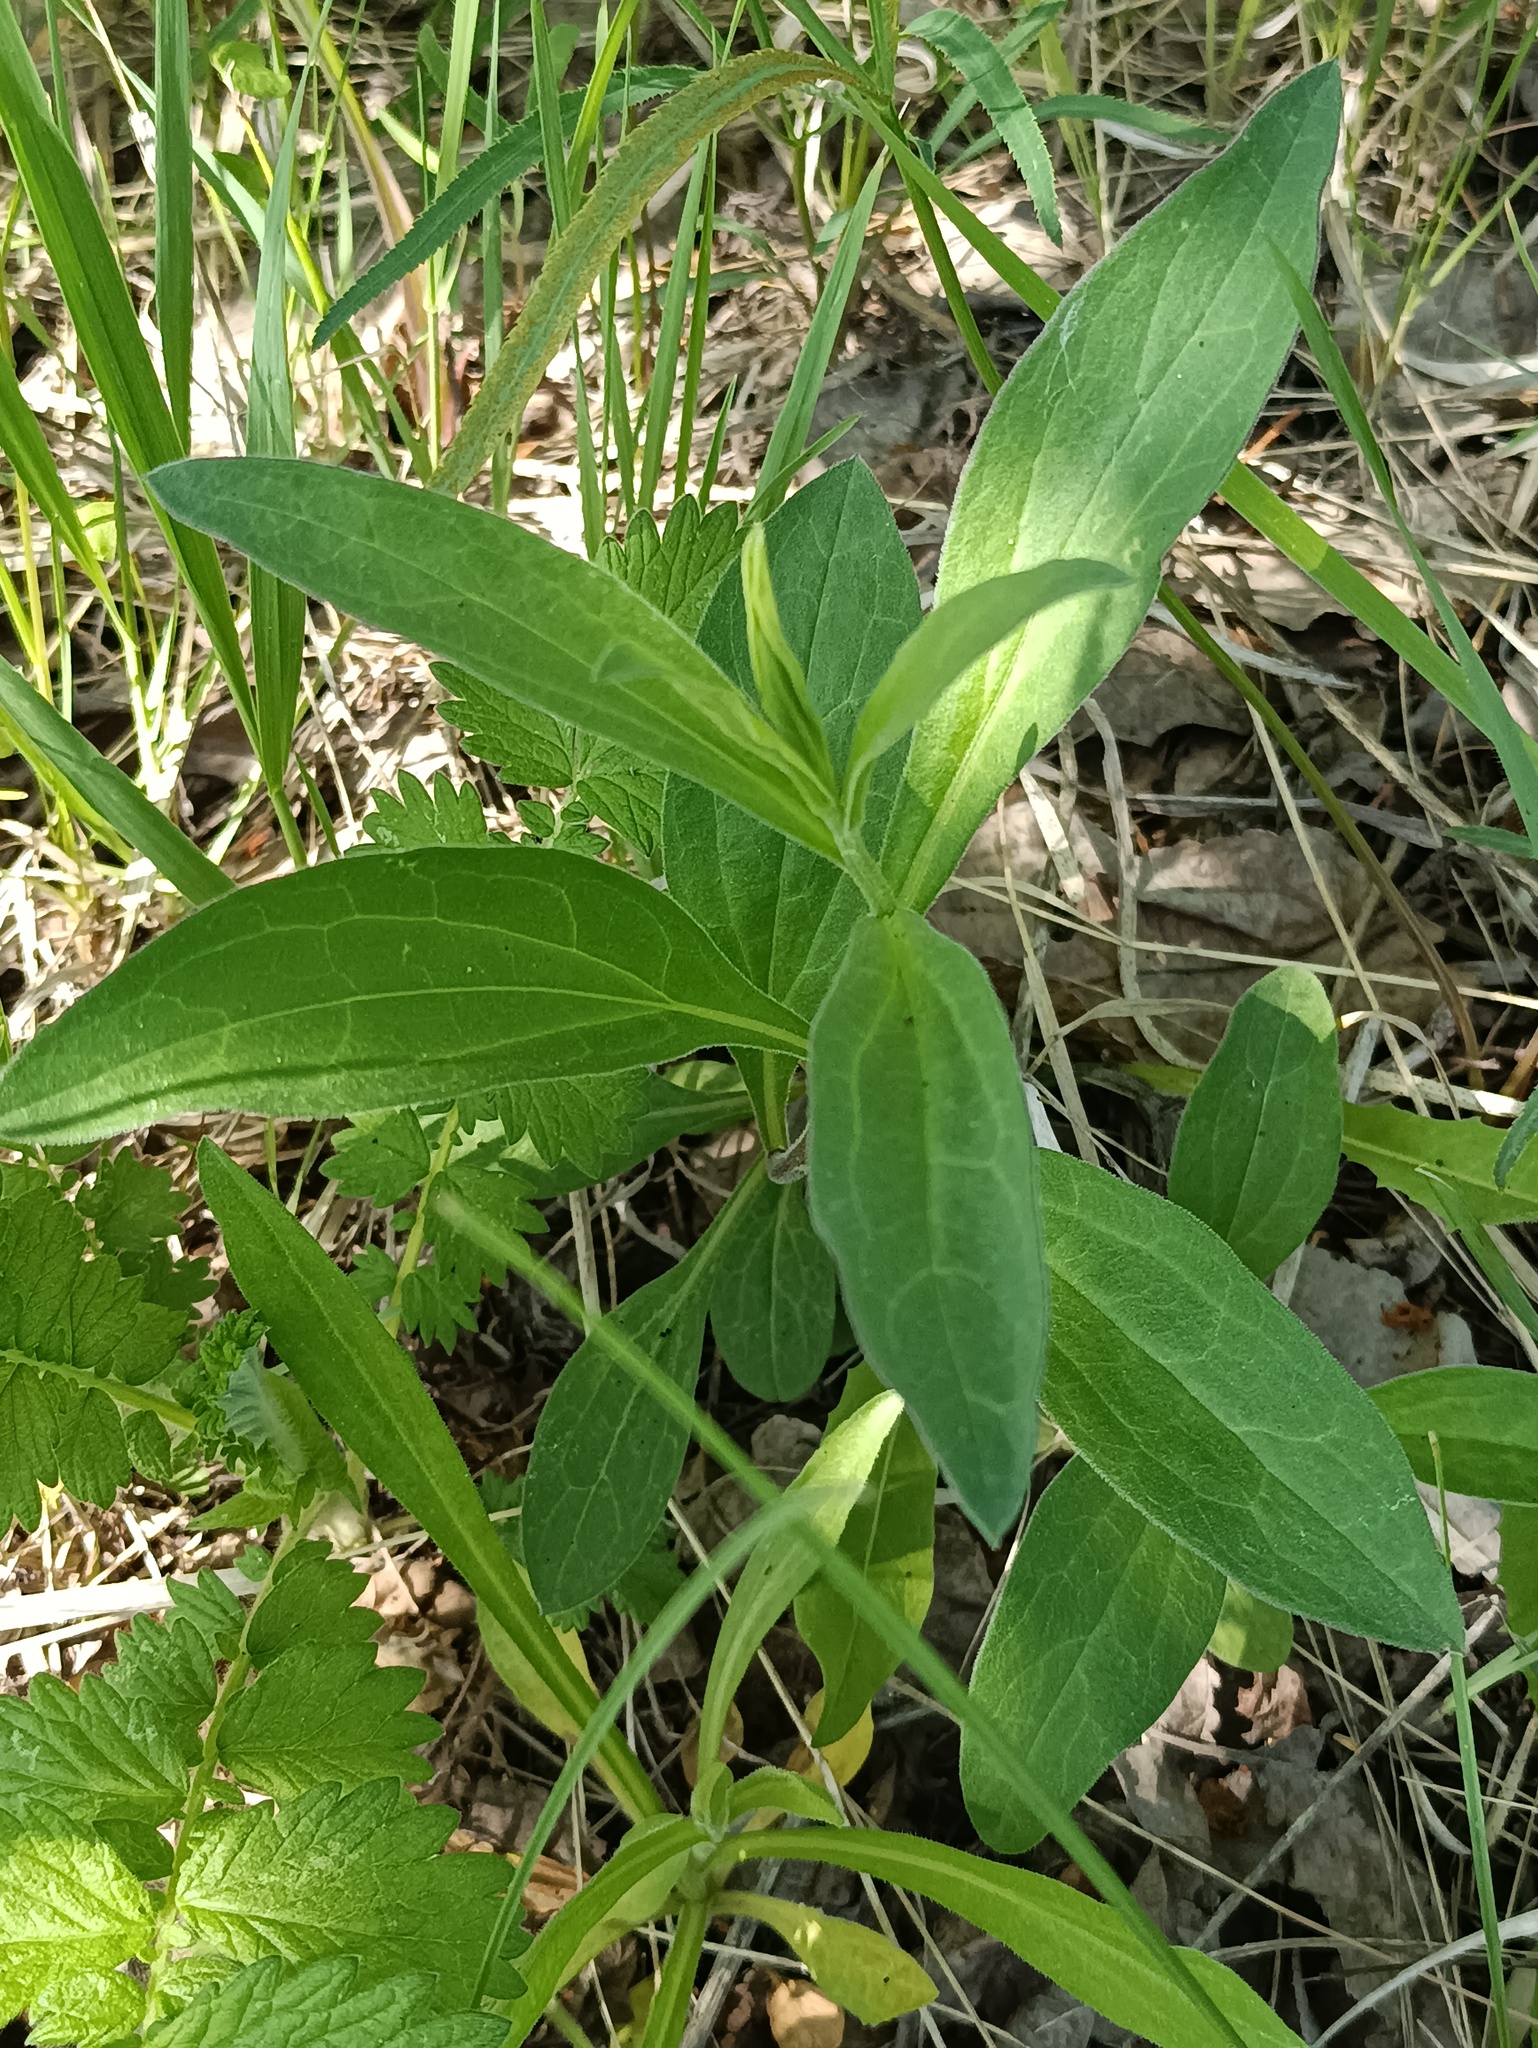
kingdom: Plantae
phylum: Tracheophyta
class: Magnoliopsida
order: Caryophyllales
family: Caryophyllaceae
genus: Silene
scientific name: Silene latifolia
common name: White campion
